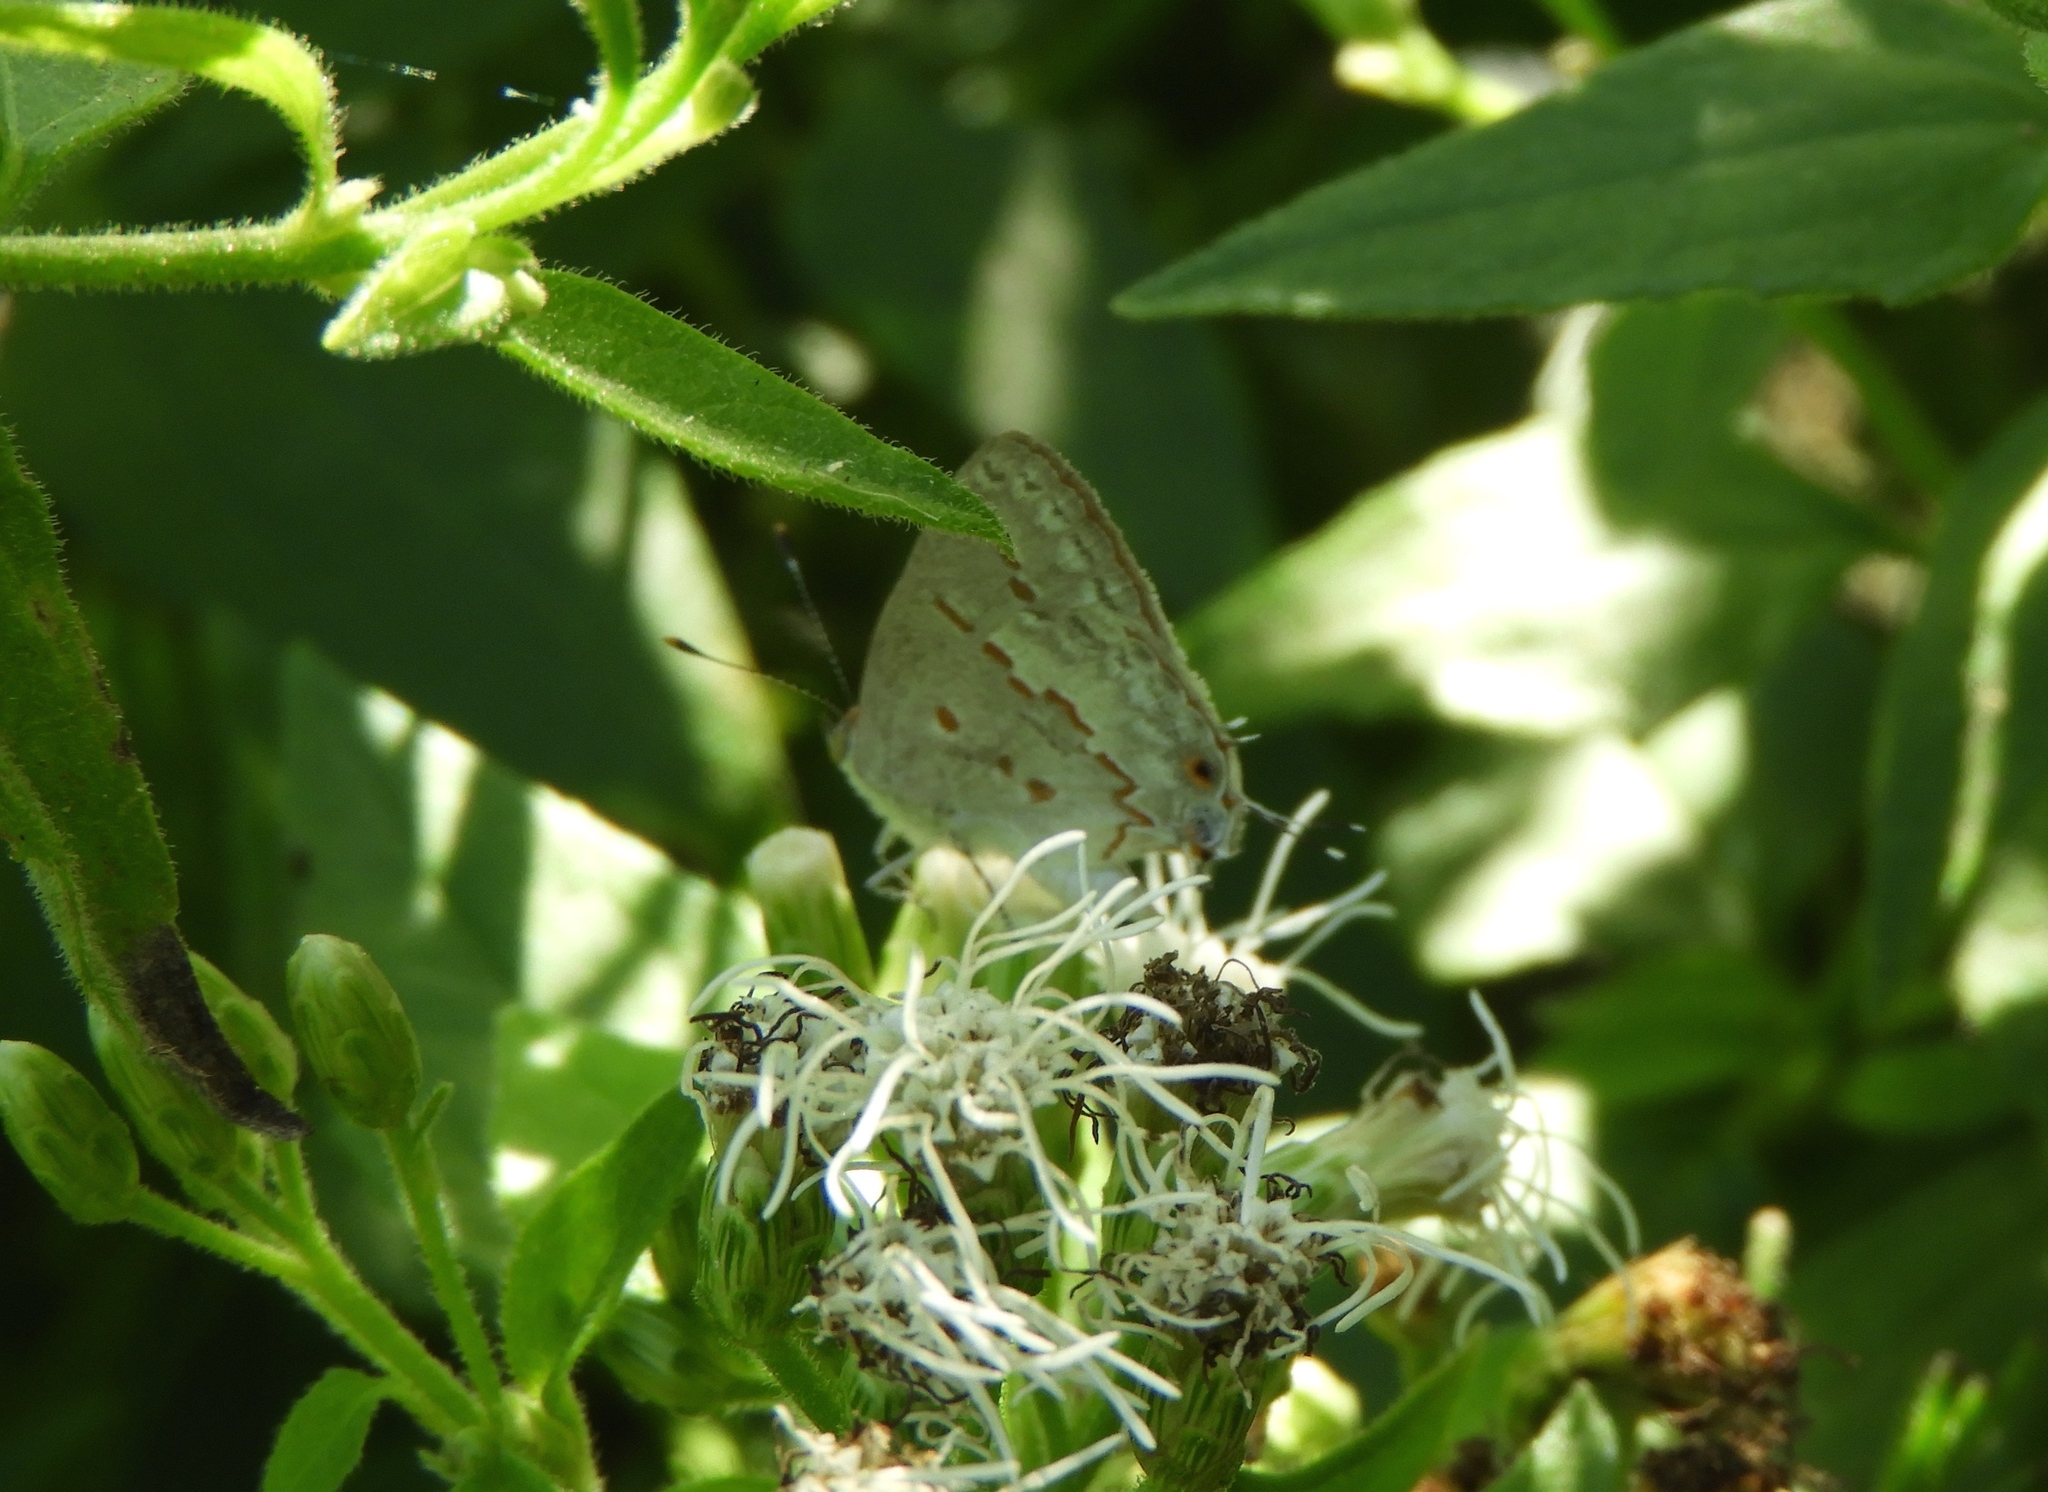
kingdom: Animalia
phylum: Arthropoda
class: Insecta
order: Lepidoptera
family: Lycaenidae
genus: Ministrymon
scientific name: Ministrymon clytie
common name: Clytie ministreak
